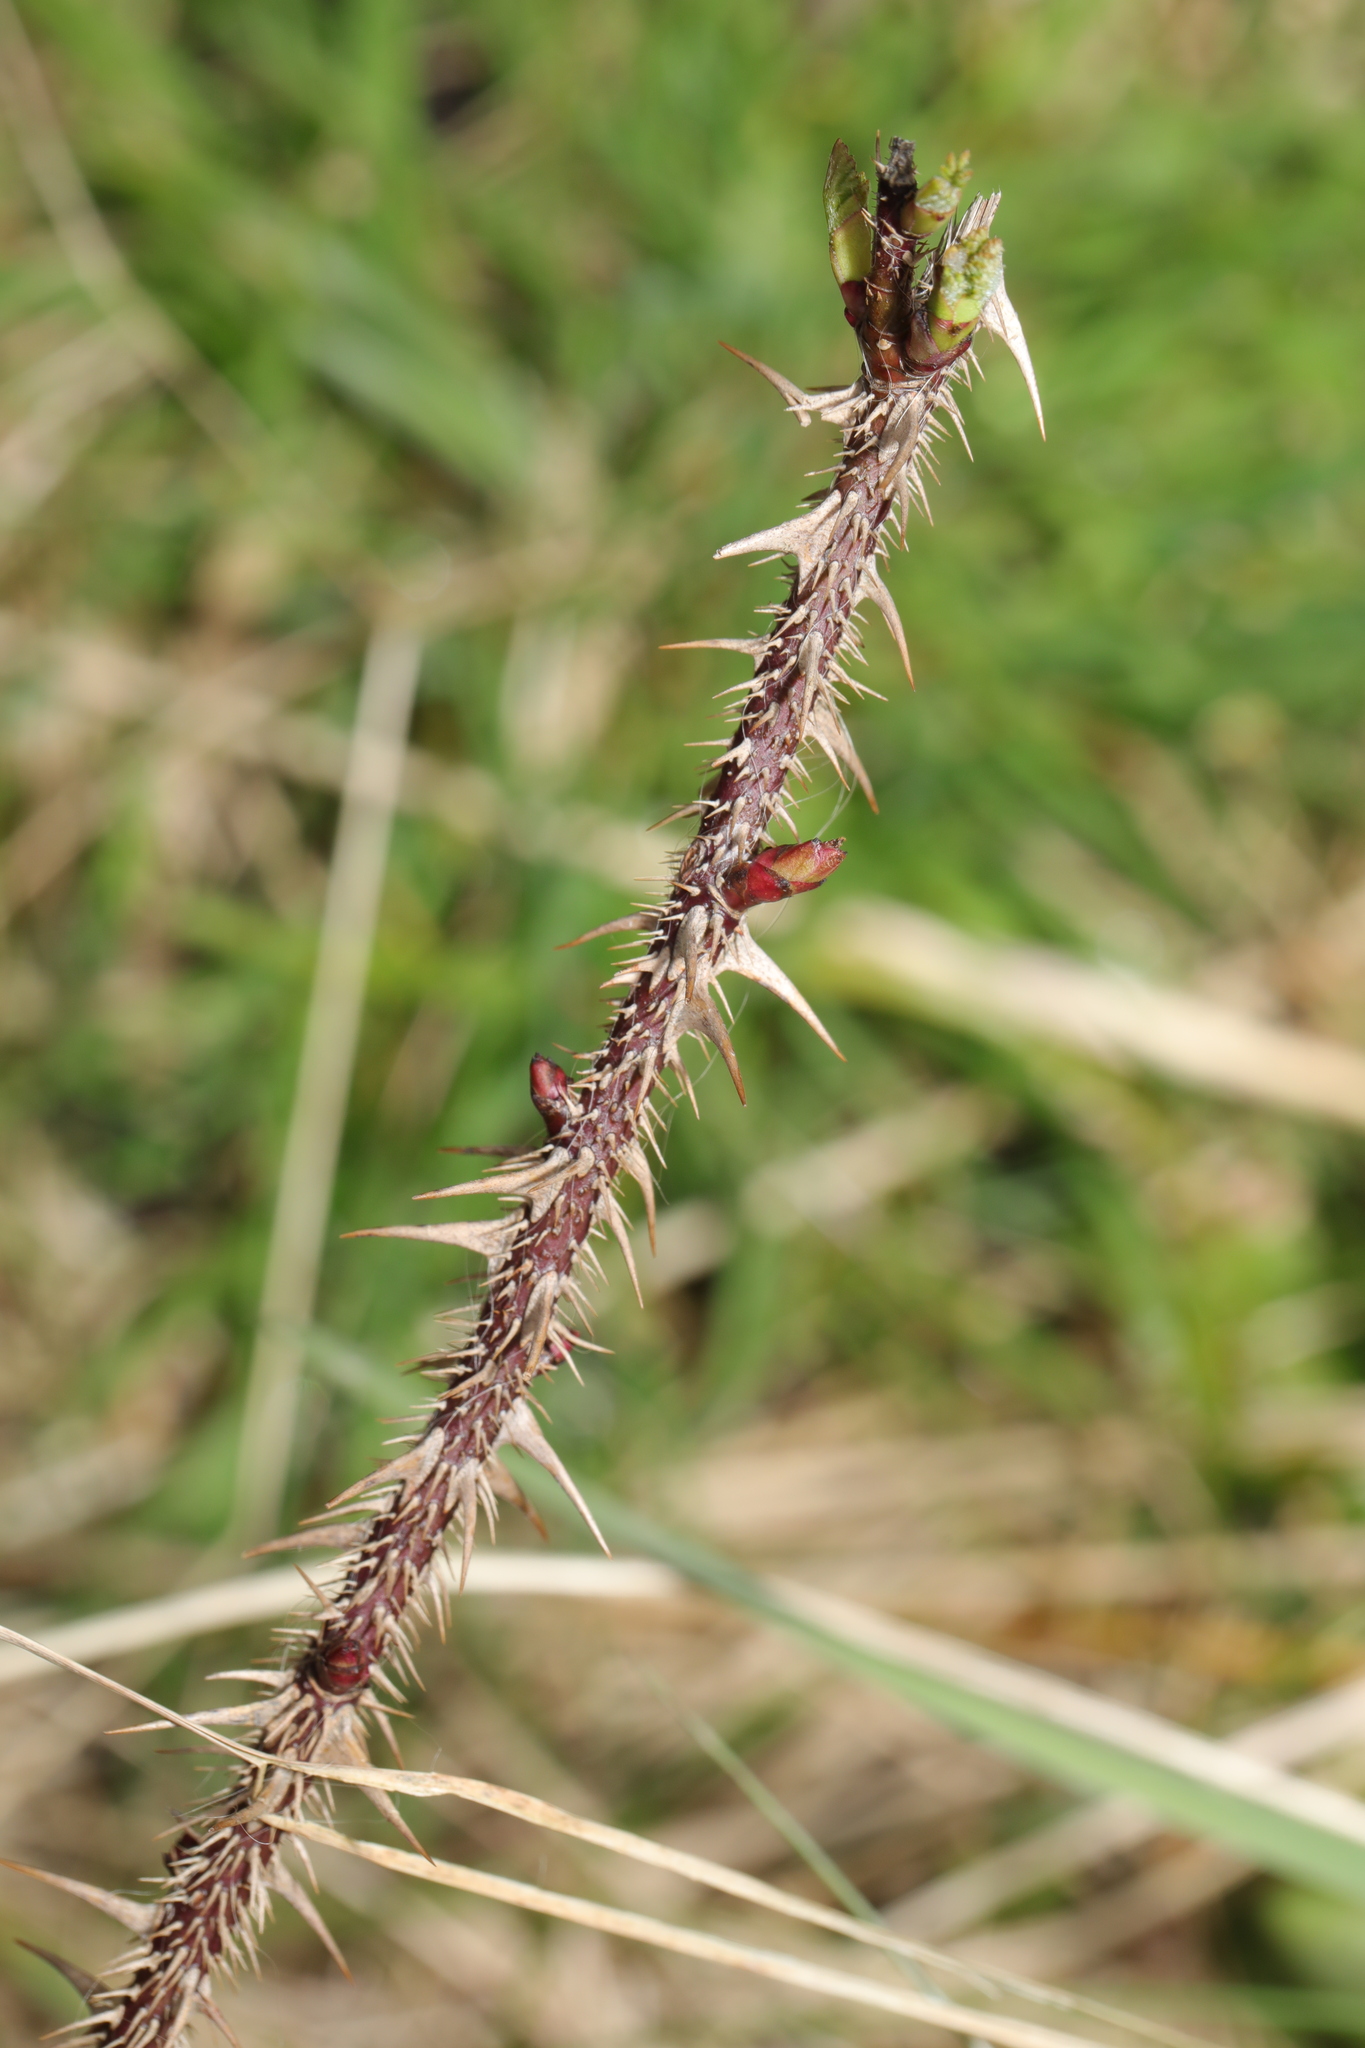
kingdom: Plantae
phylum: Tracheophyta
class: Magnoliopsida
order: Rosales
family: Rosaceae
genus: Rosa
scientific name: Rosa spinosissima
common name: Burnet rose
